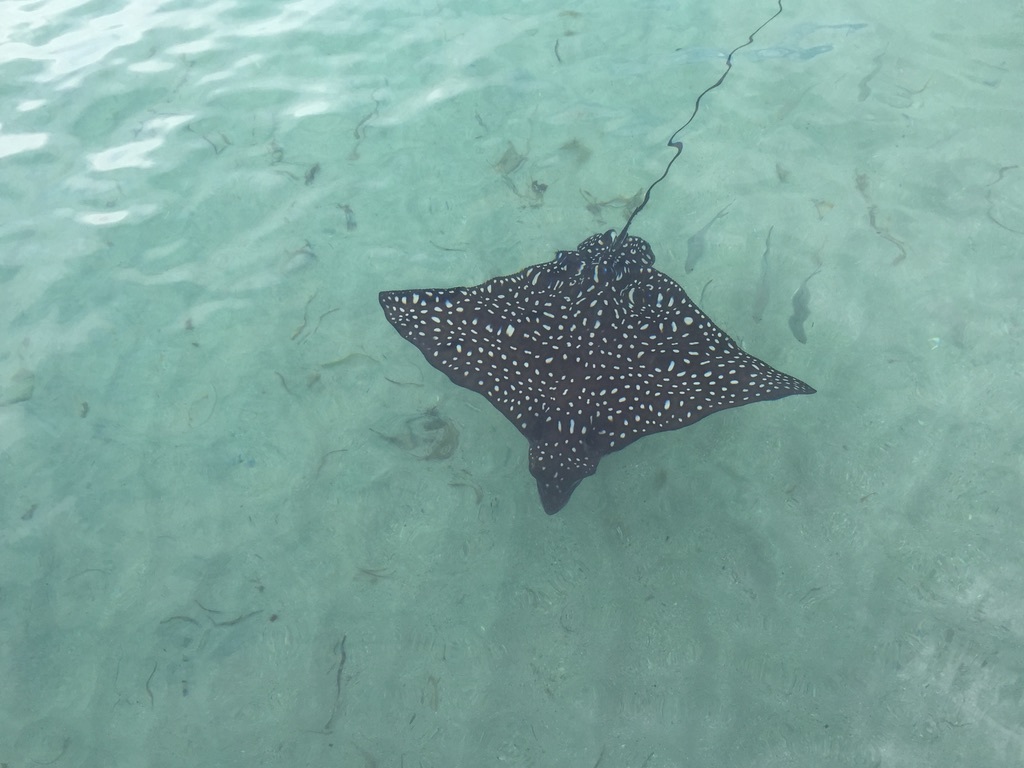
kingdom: Animalia
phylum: Chordata
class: Elasmobranchii
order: Myliobatiformes
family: Myliobatidae
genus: Aetobatus
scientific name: Aetobatus narinari
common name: Spotted eagle ray
